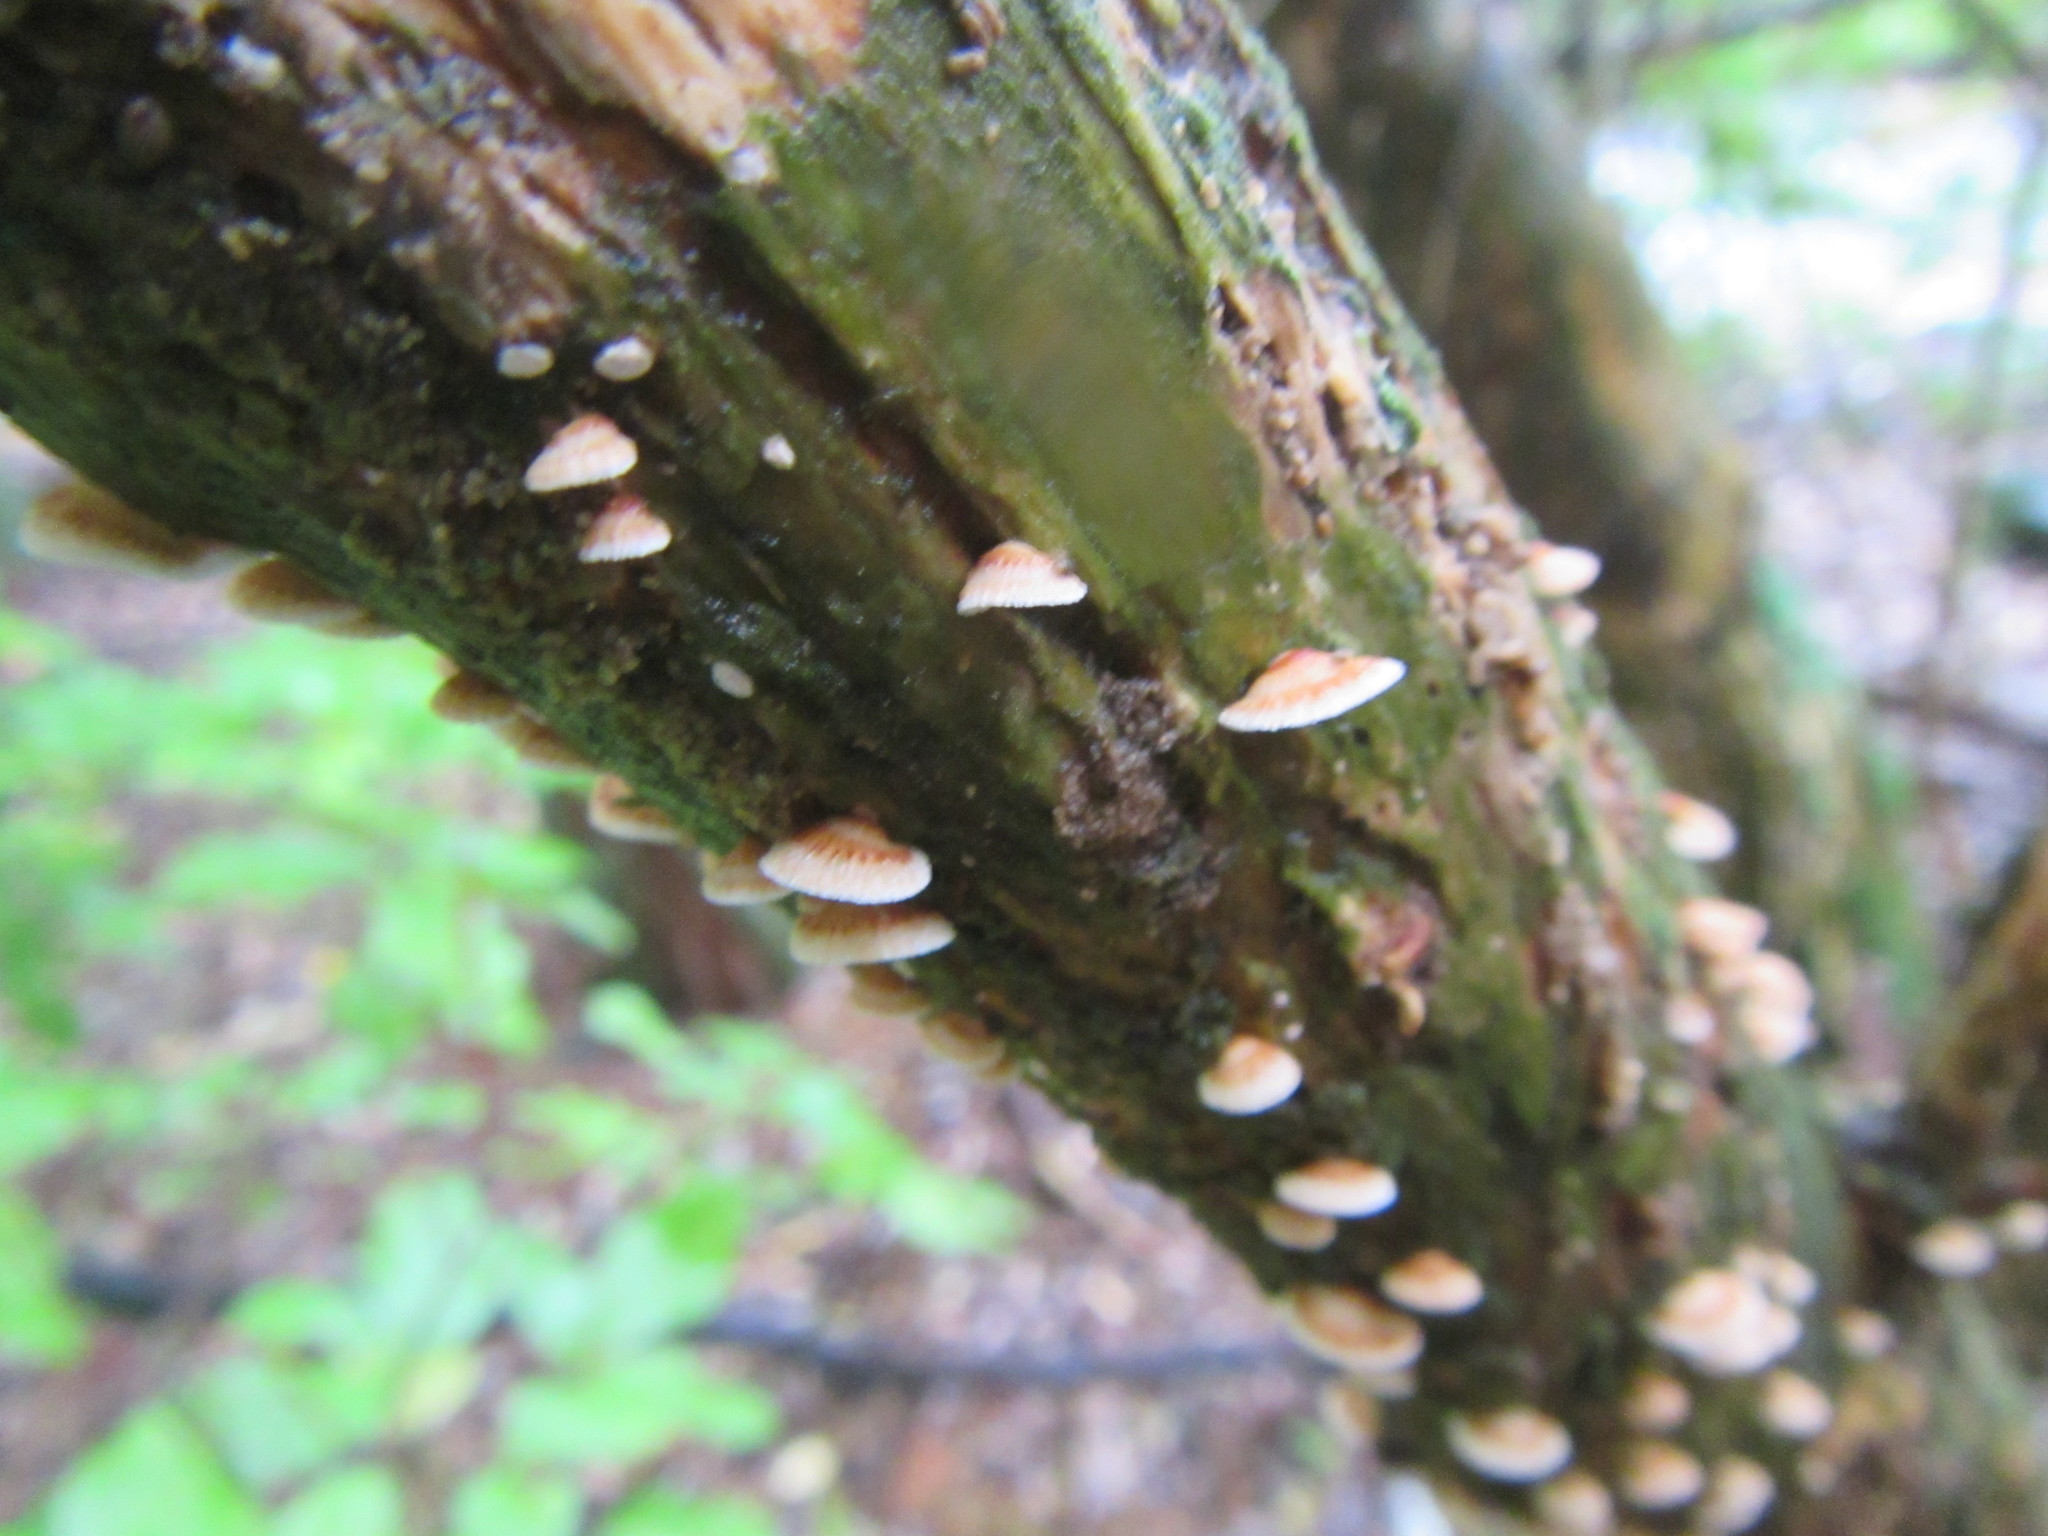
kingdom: Fungi
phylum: Basidiomycota
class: Agaricomycetes
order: Agaricales
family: Marasmiaceae
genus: Chaetocalathus
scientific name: Chaetocalathus cocciformis
